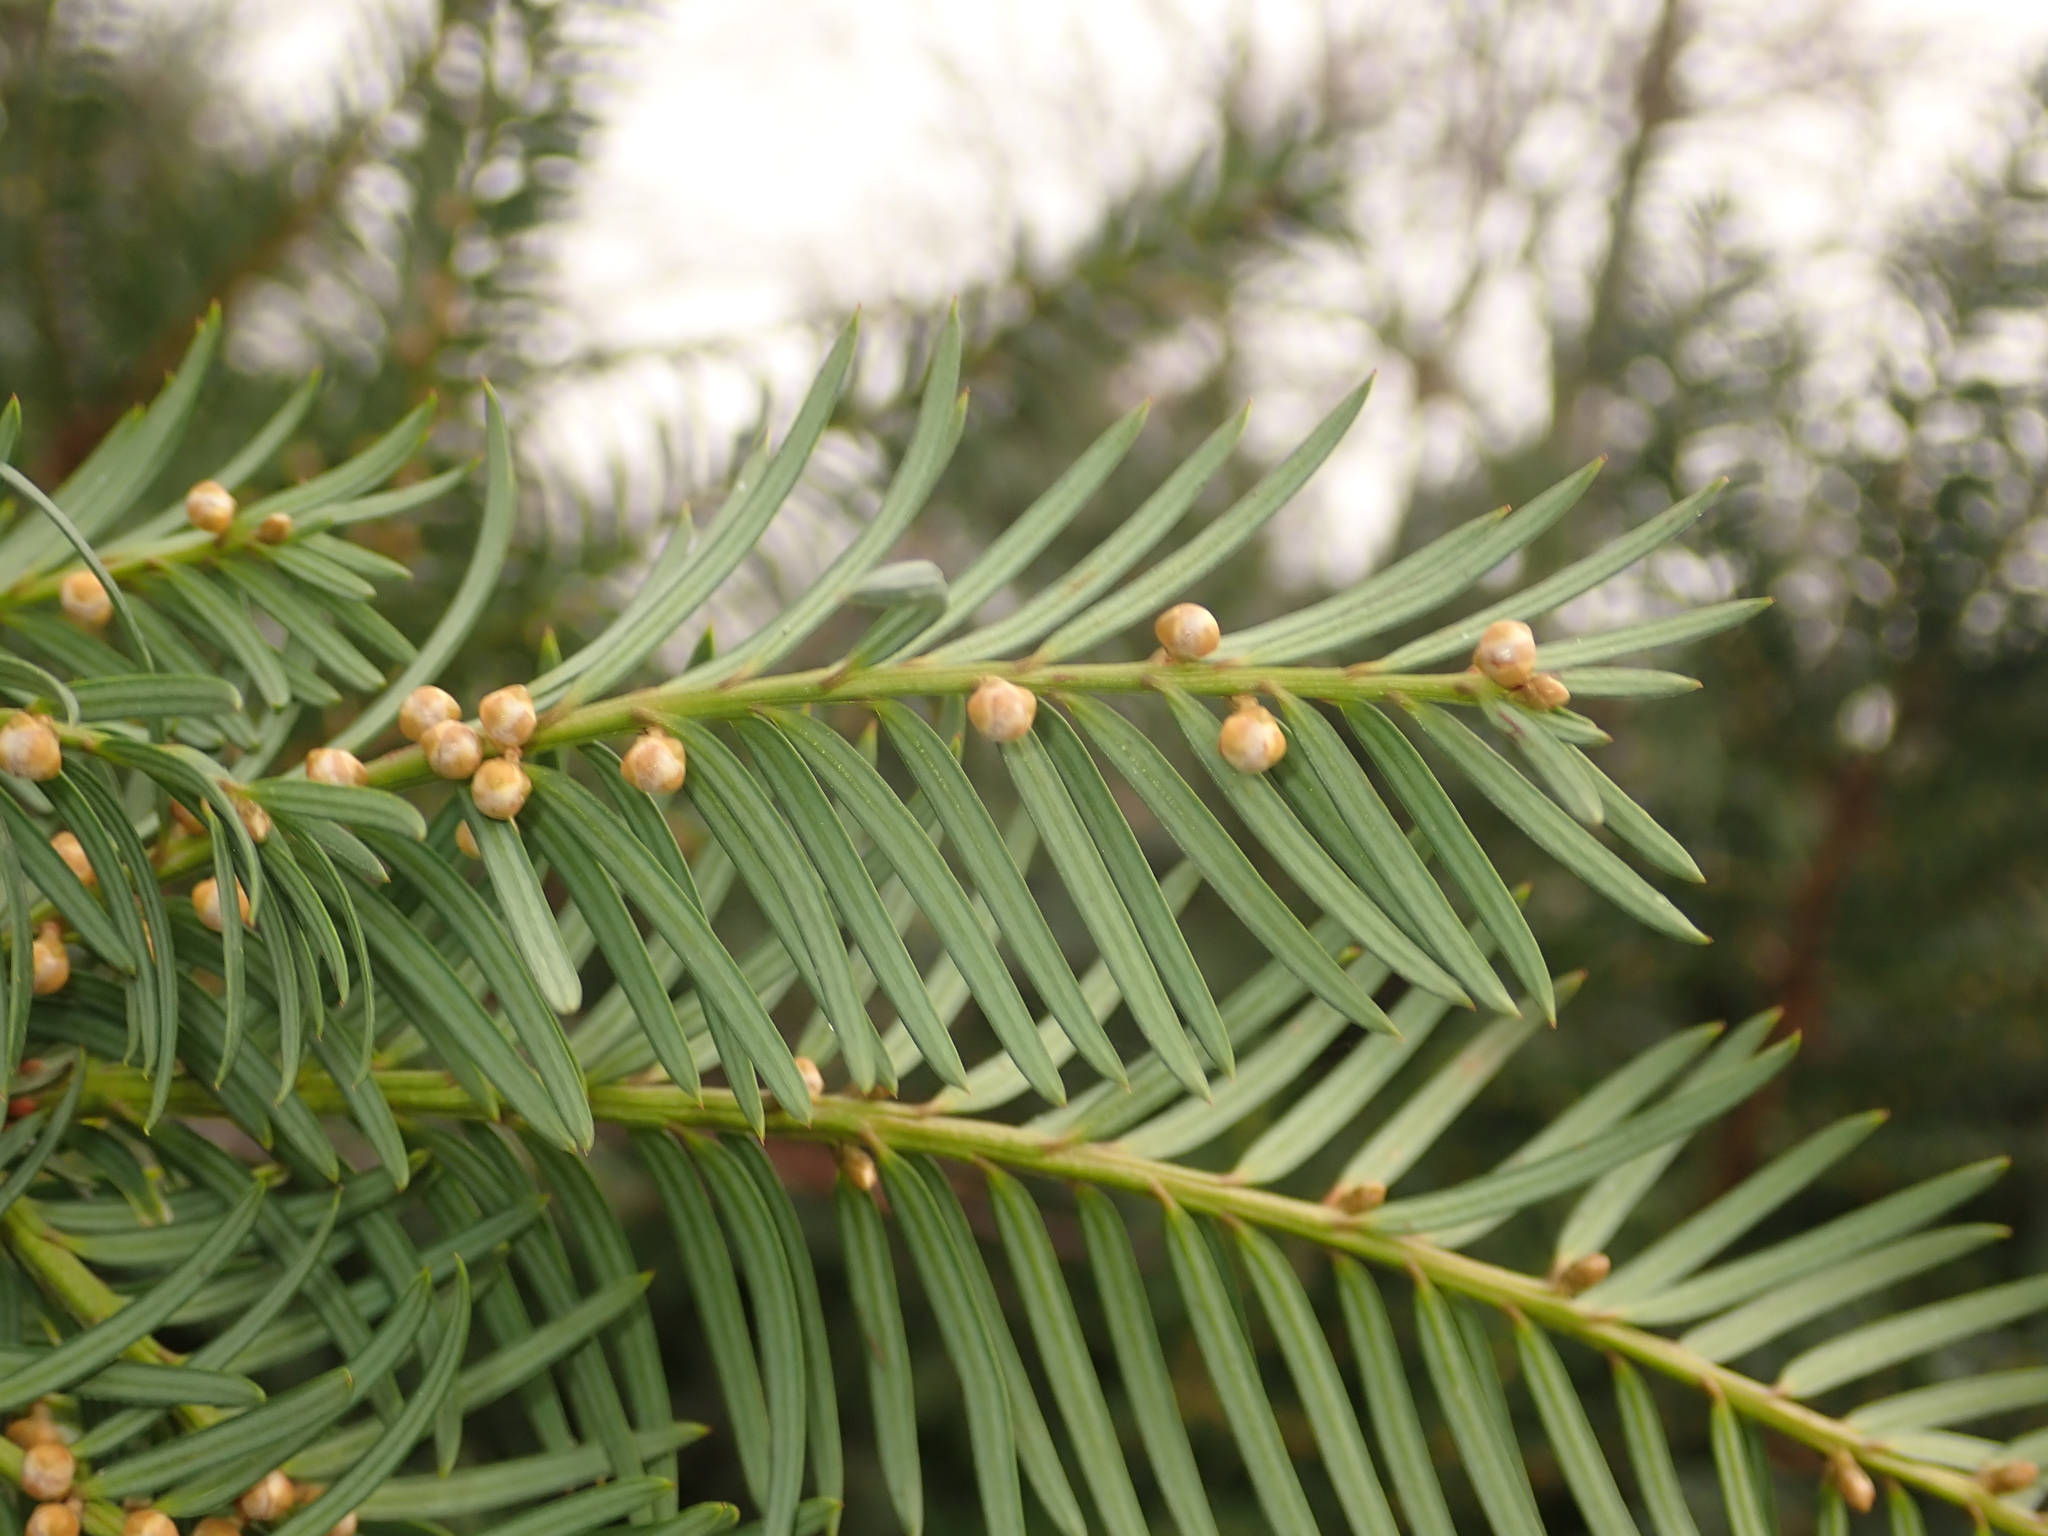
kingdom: Plantae
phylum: Tracheophyta
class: Pinopsida
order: Pinales
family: Taxaceae
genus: Taxus
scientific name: Taxus baccata
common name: Yew
